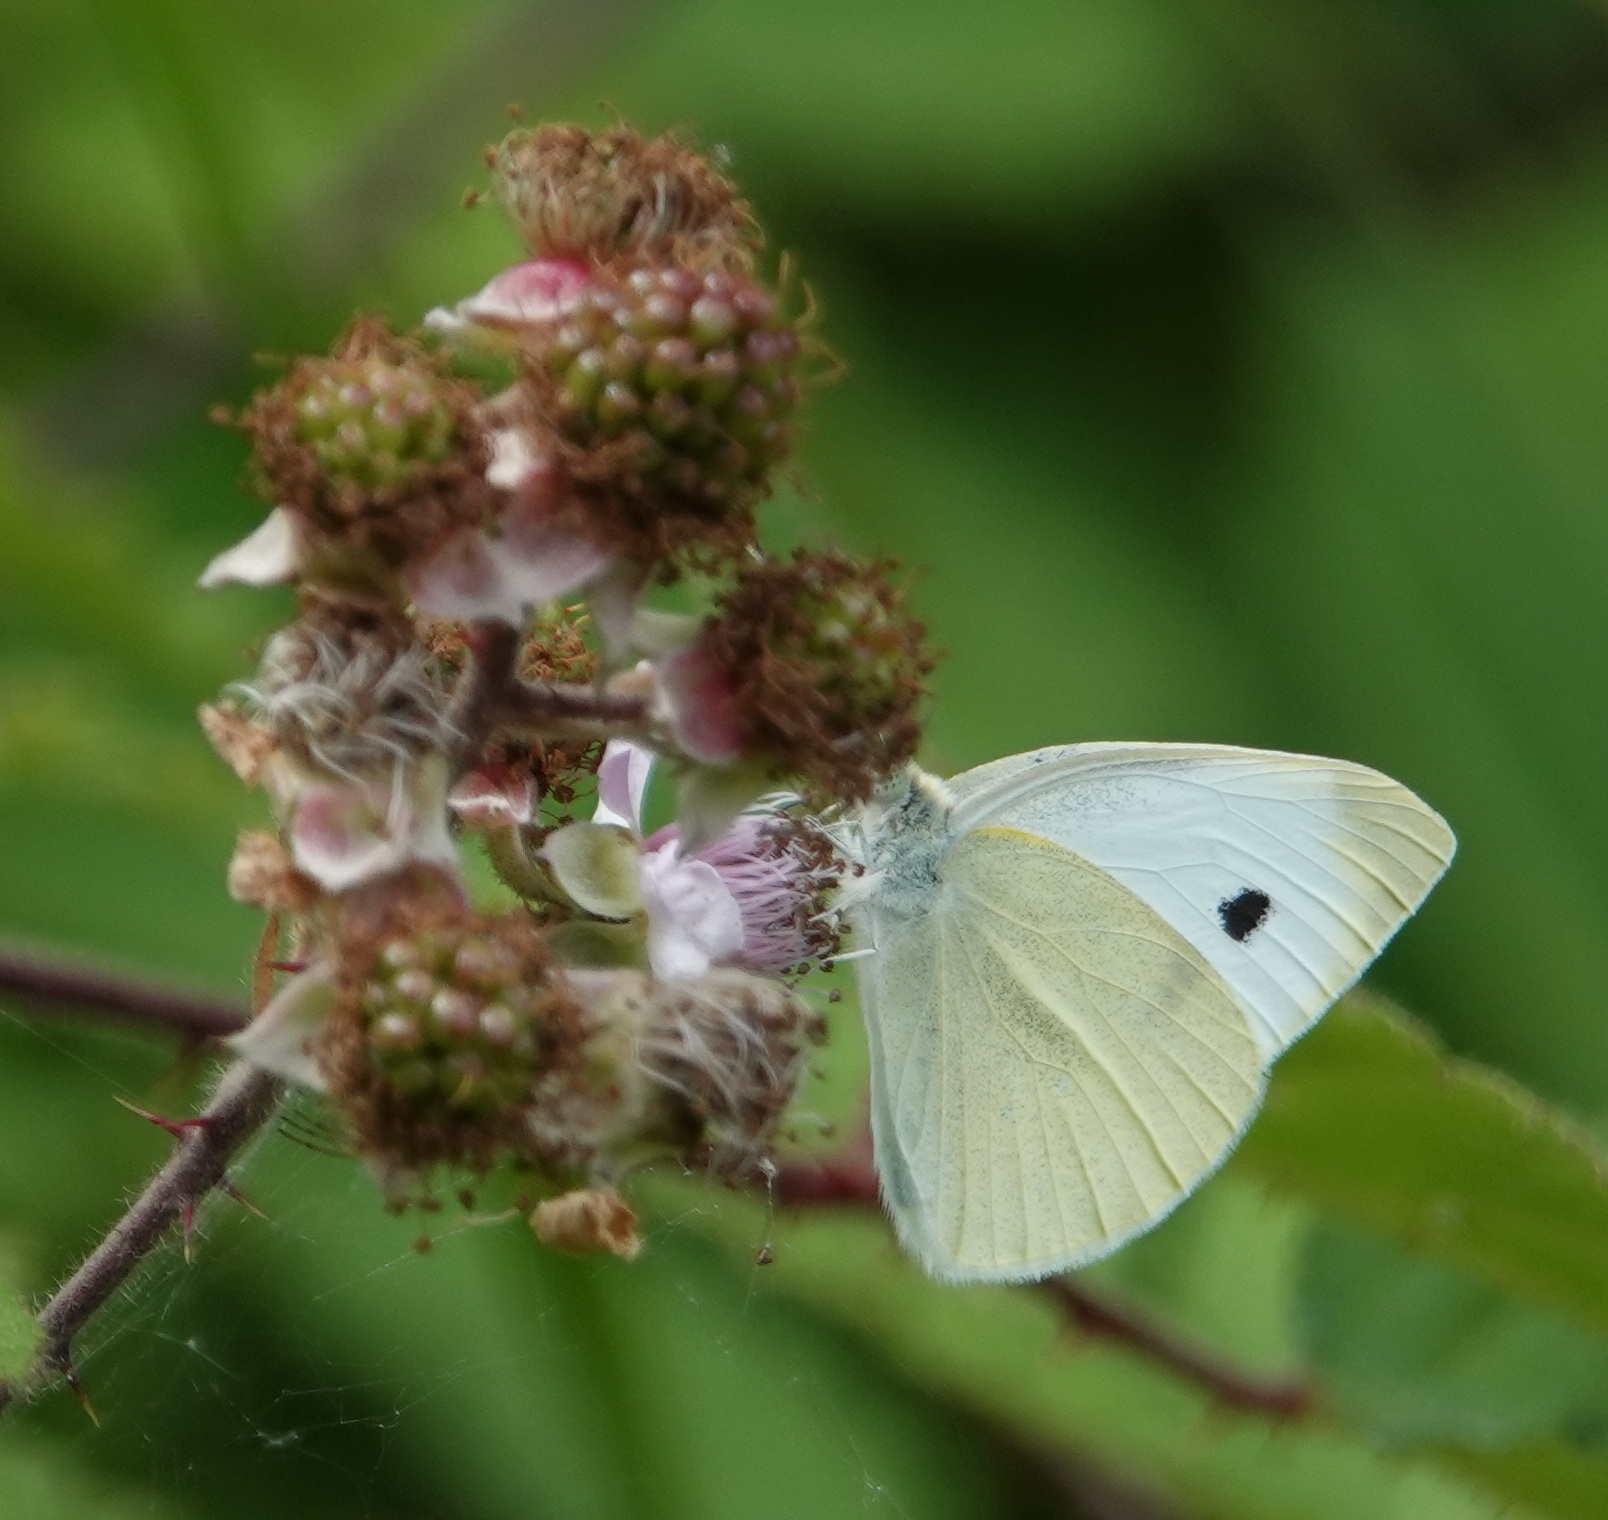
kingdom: Animalia
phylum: Arthropoda
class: Insecta
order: Lepidoptera
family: Pieridae
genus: Pieris
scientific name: Pieris rapae
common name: Small white
